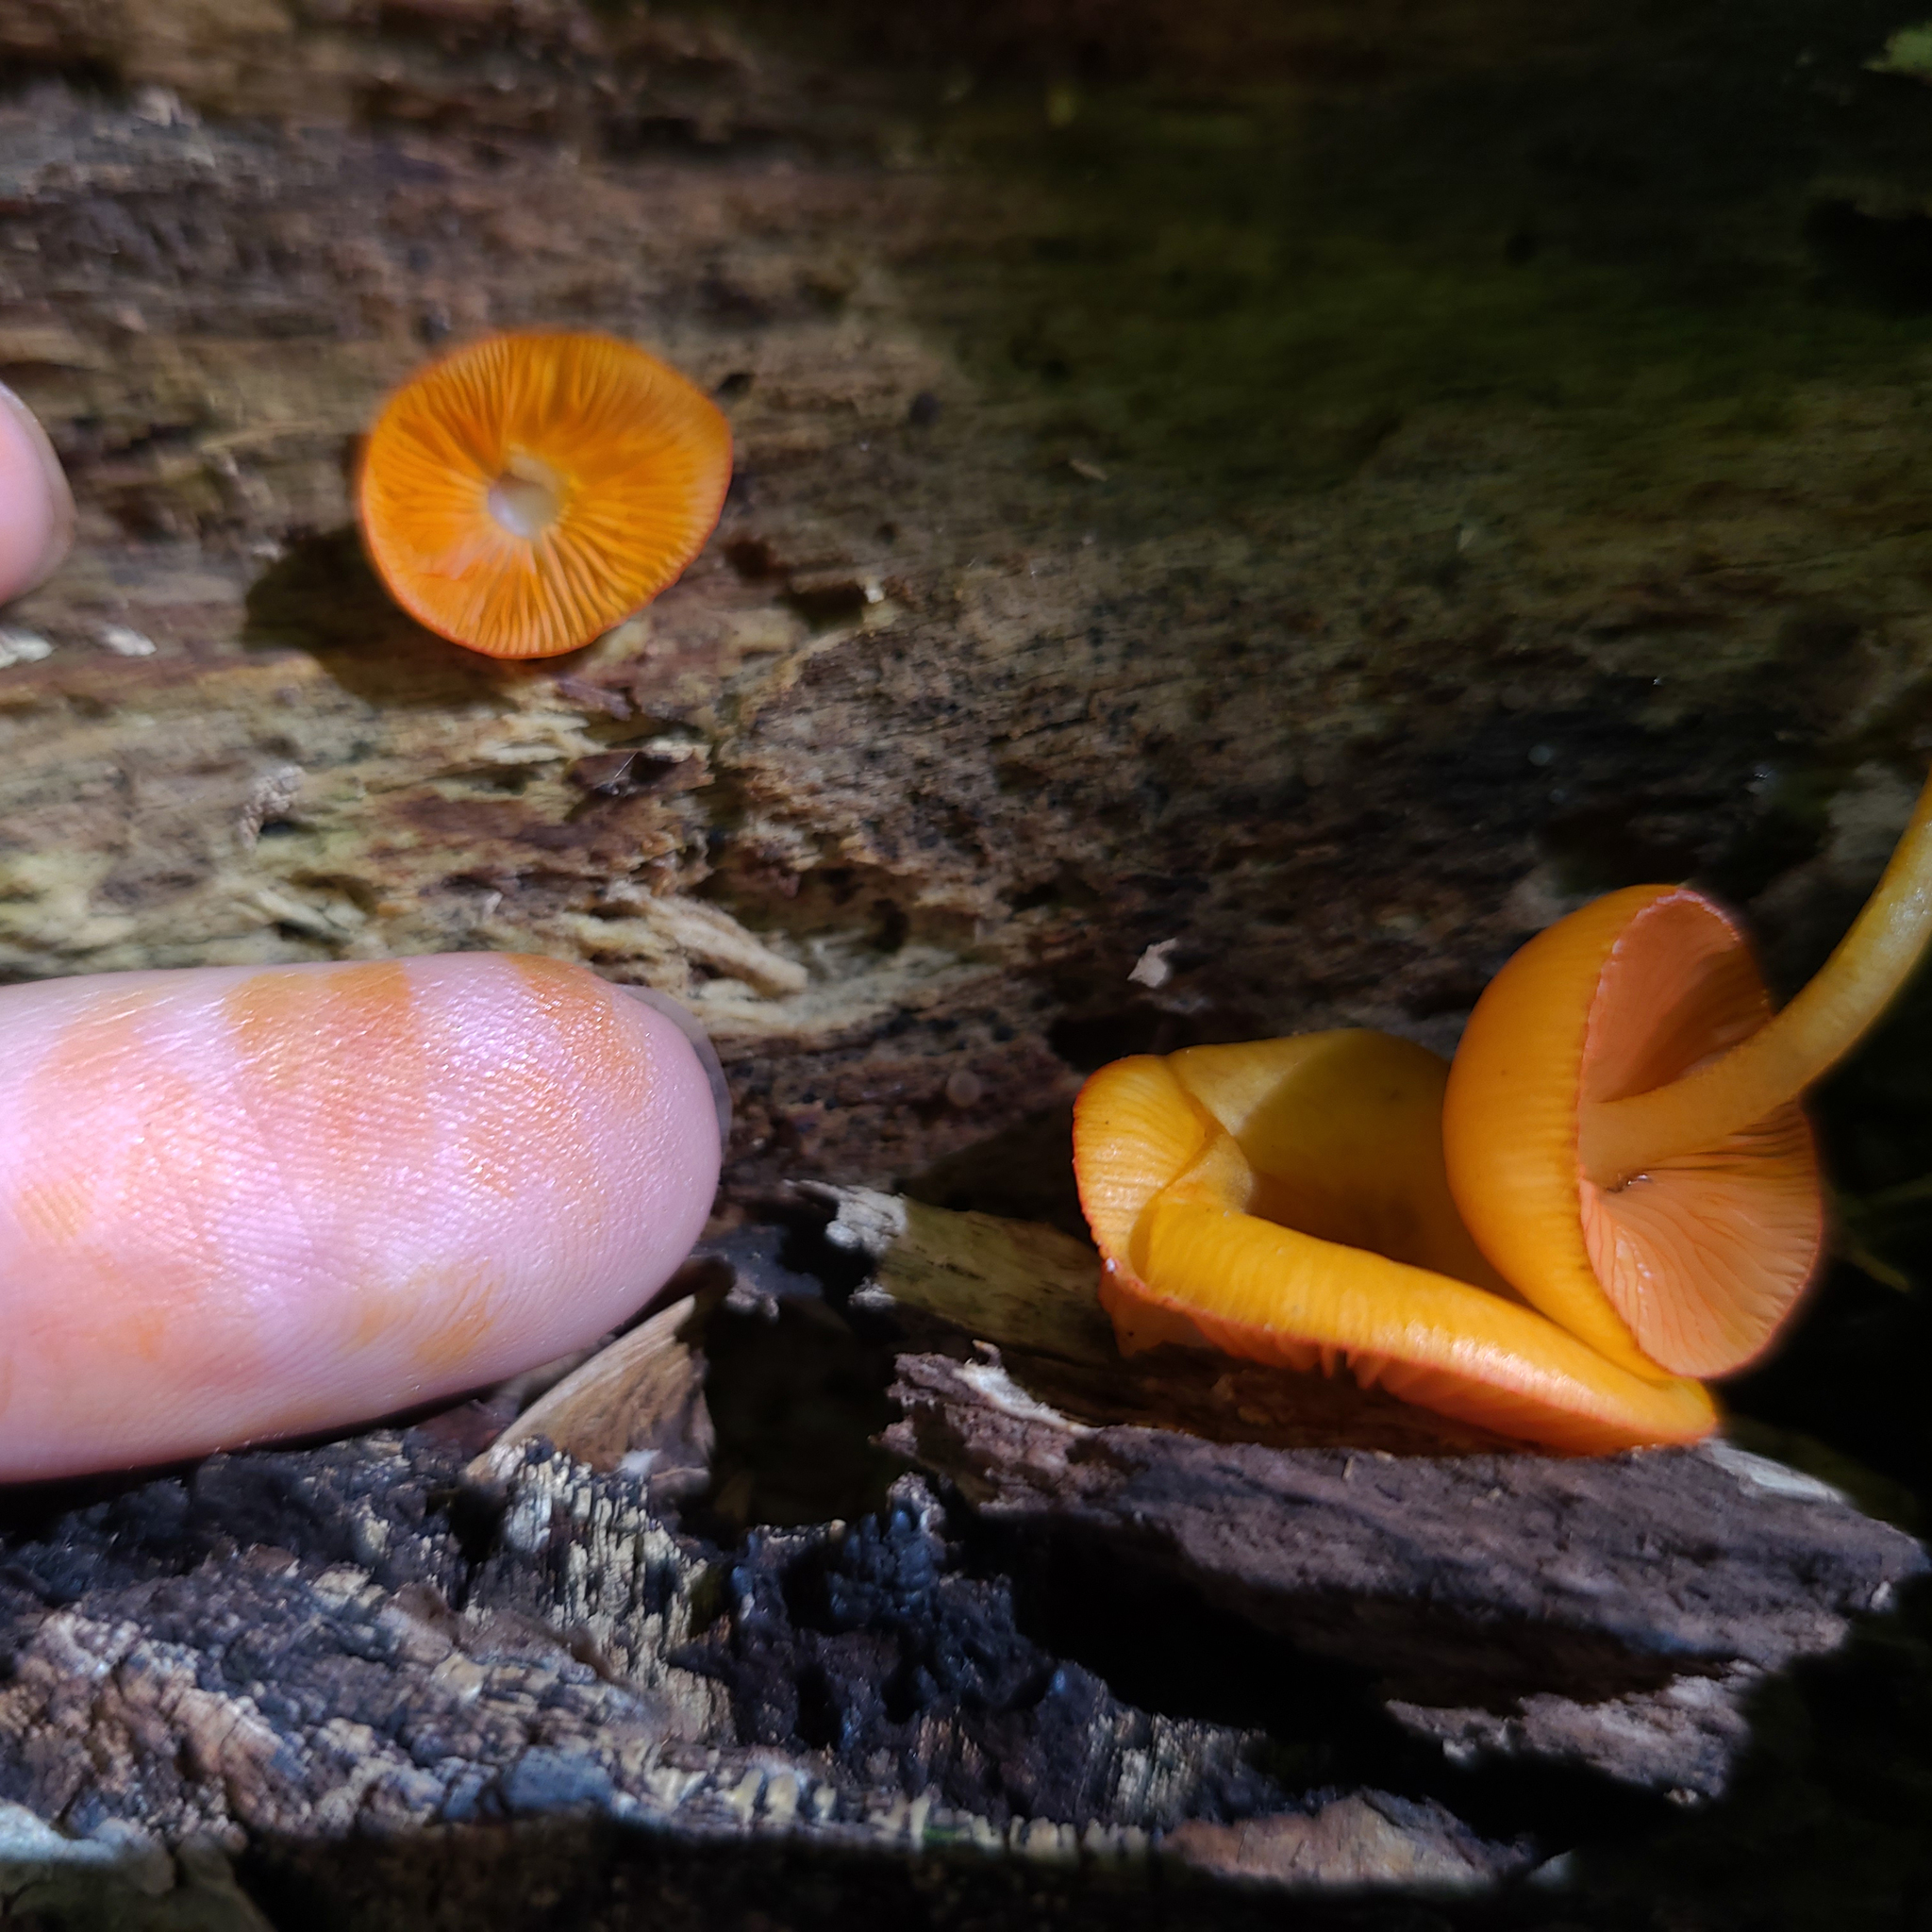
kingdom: Fungi
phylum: Basidiomycota
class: Agaricomycetes
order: Agaricales
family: Mycenaceae
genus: Mycena
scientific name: Mycena leaiana
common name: Orange mycena
